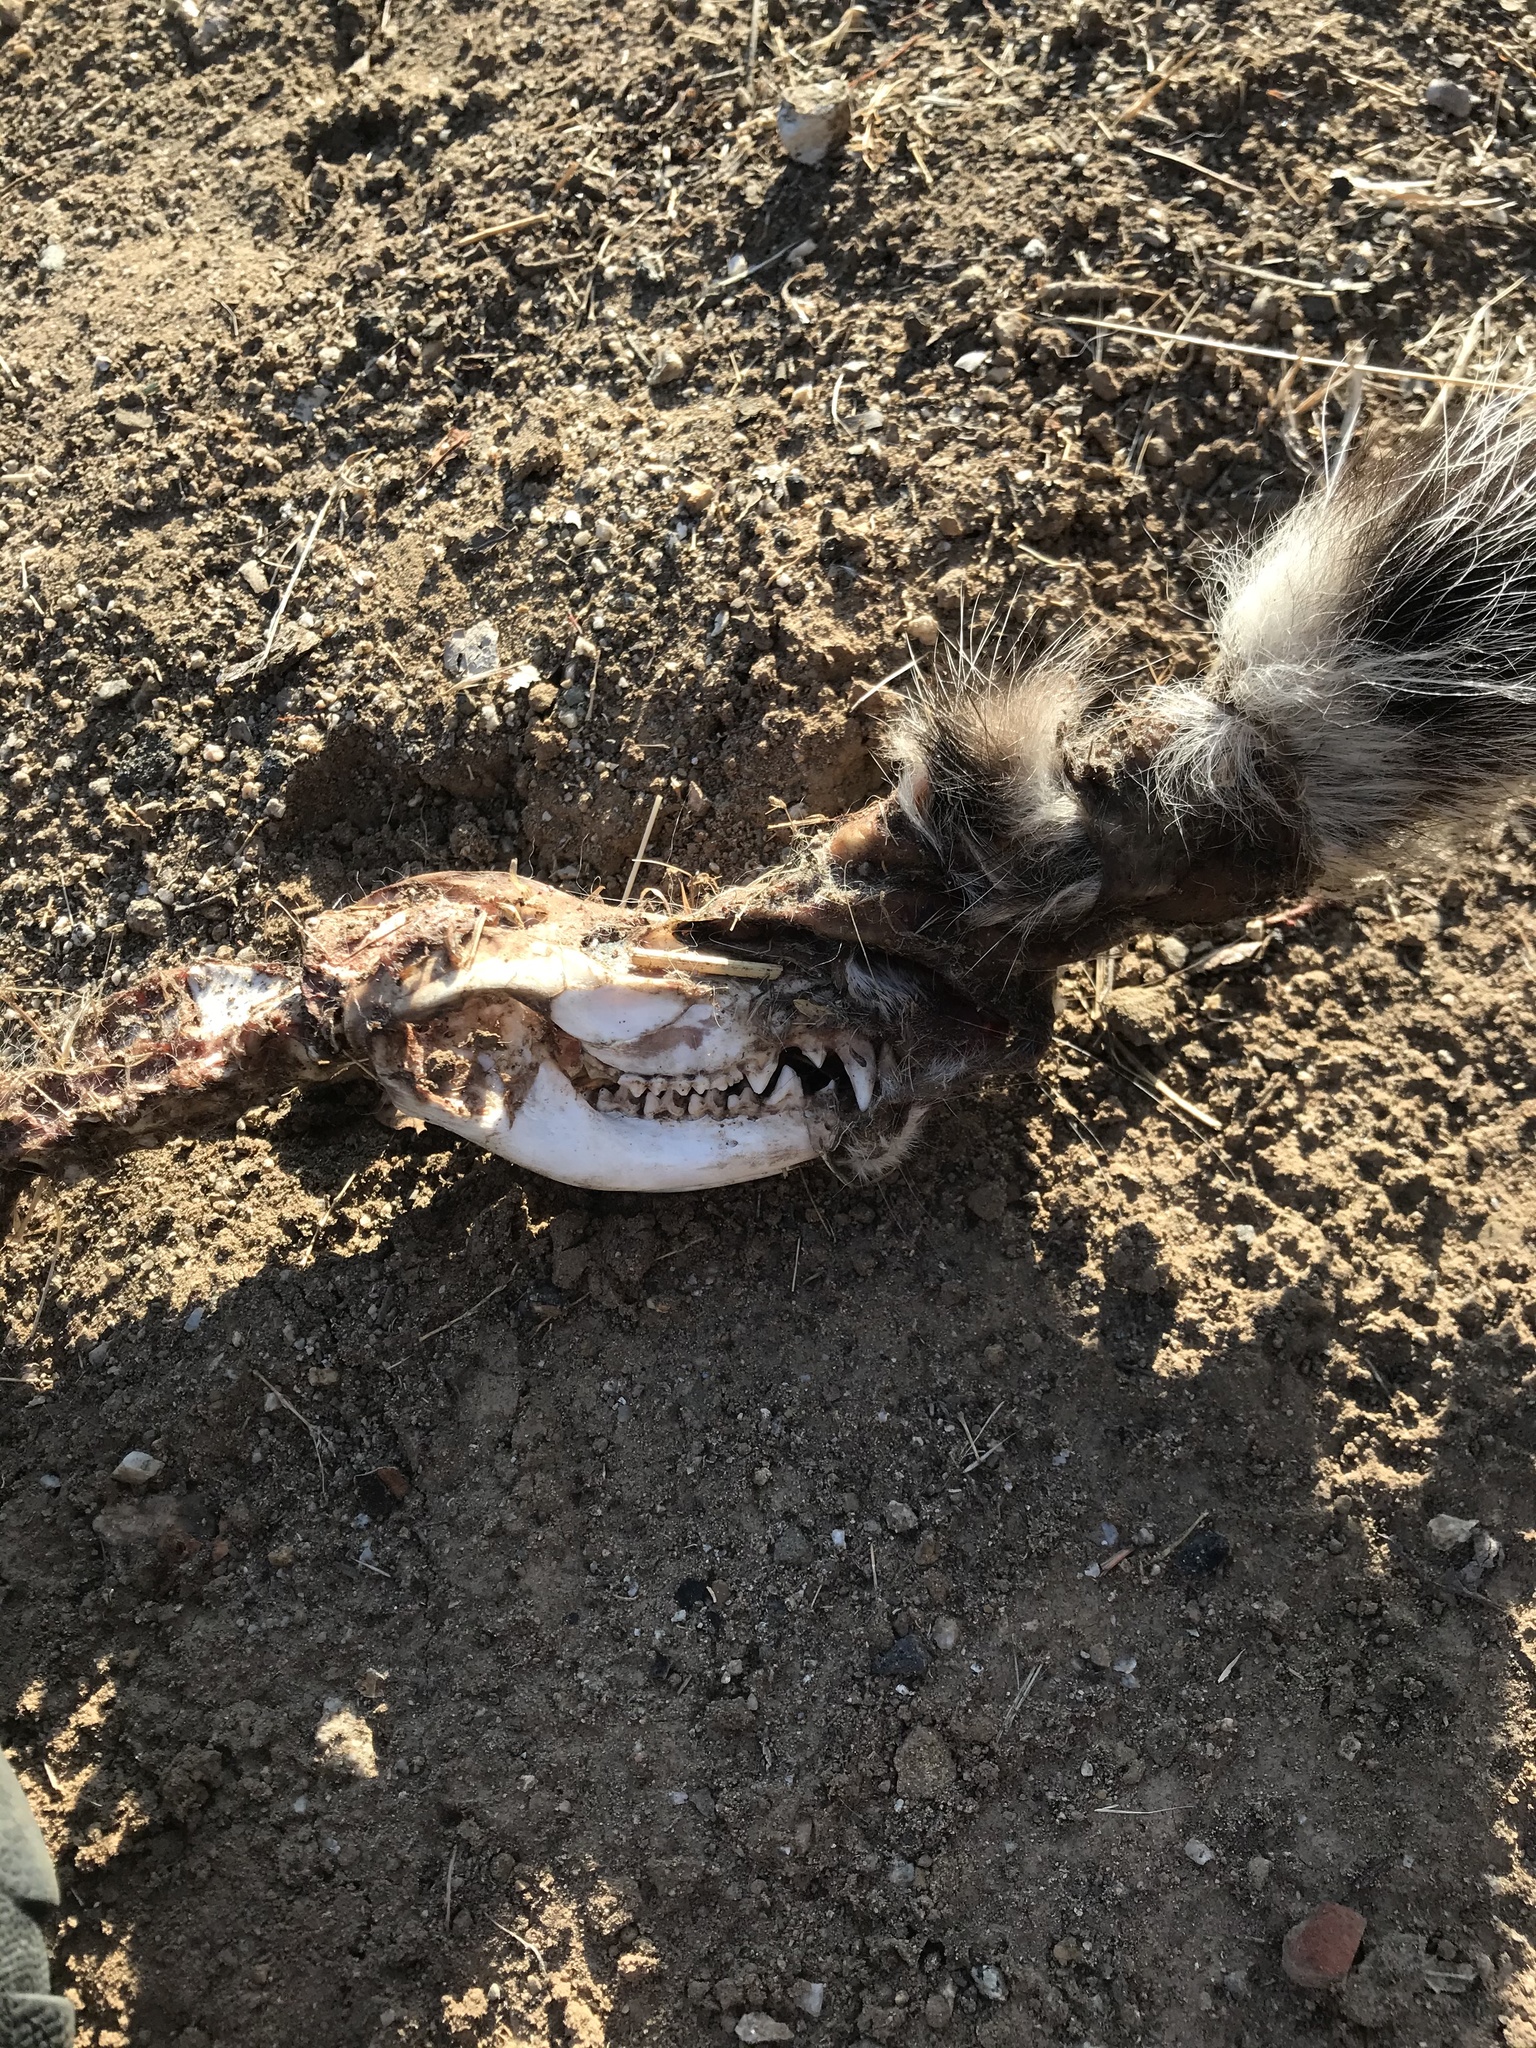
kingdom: Animalia
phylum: Chordata
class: Mammalia
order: Didelphimorphia
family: Didelphidae
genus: Didelphis
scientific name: Didelphis virginiana
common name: Virginia opossum
